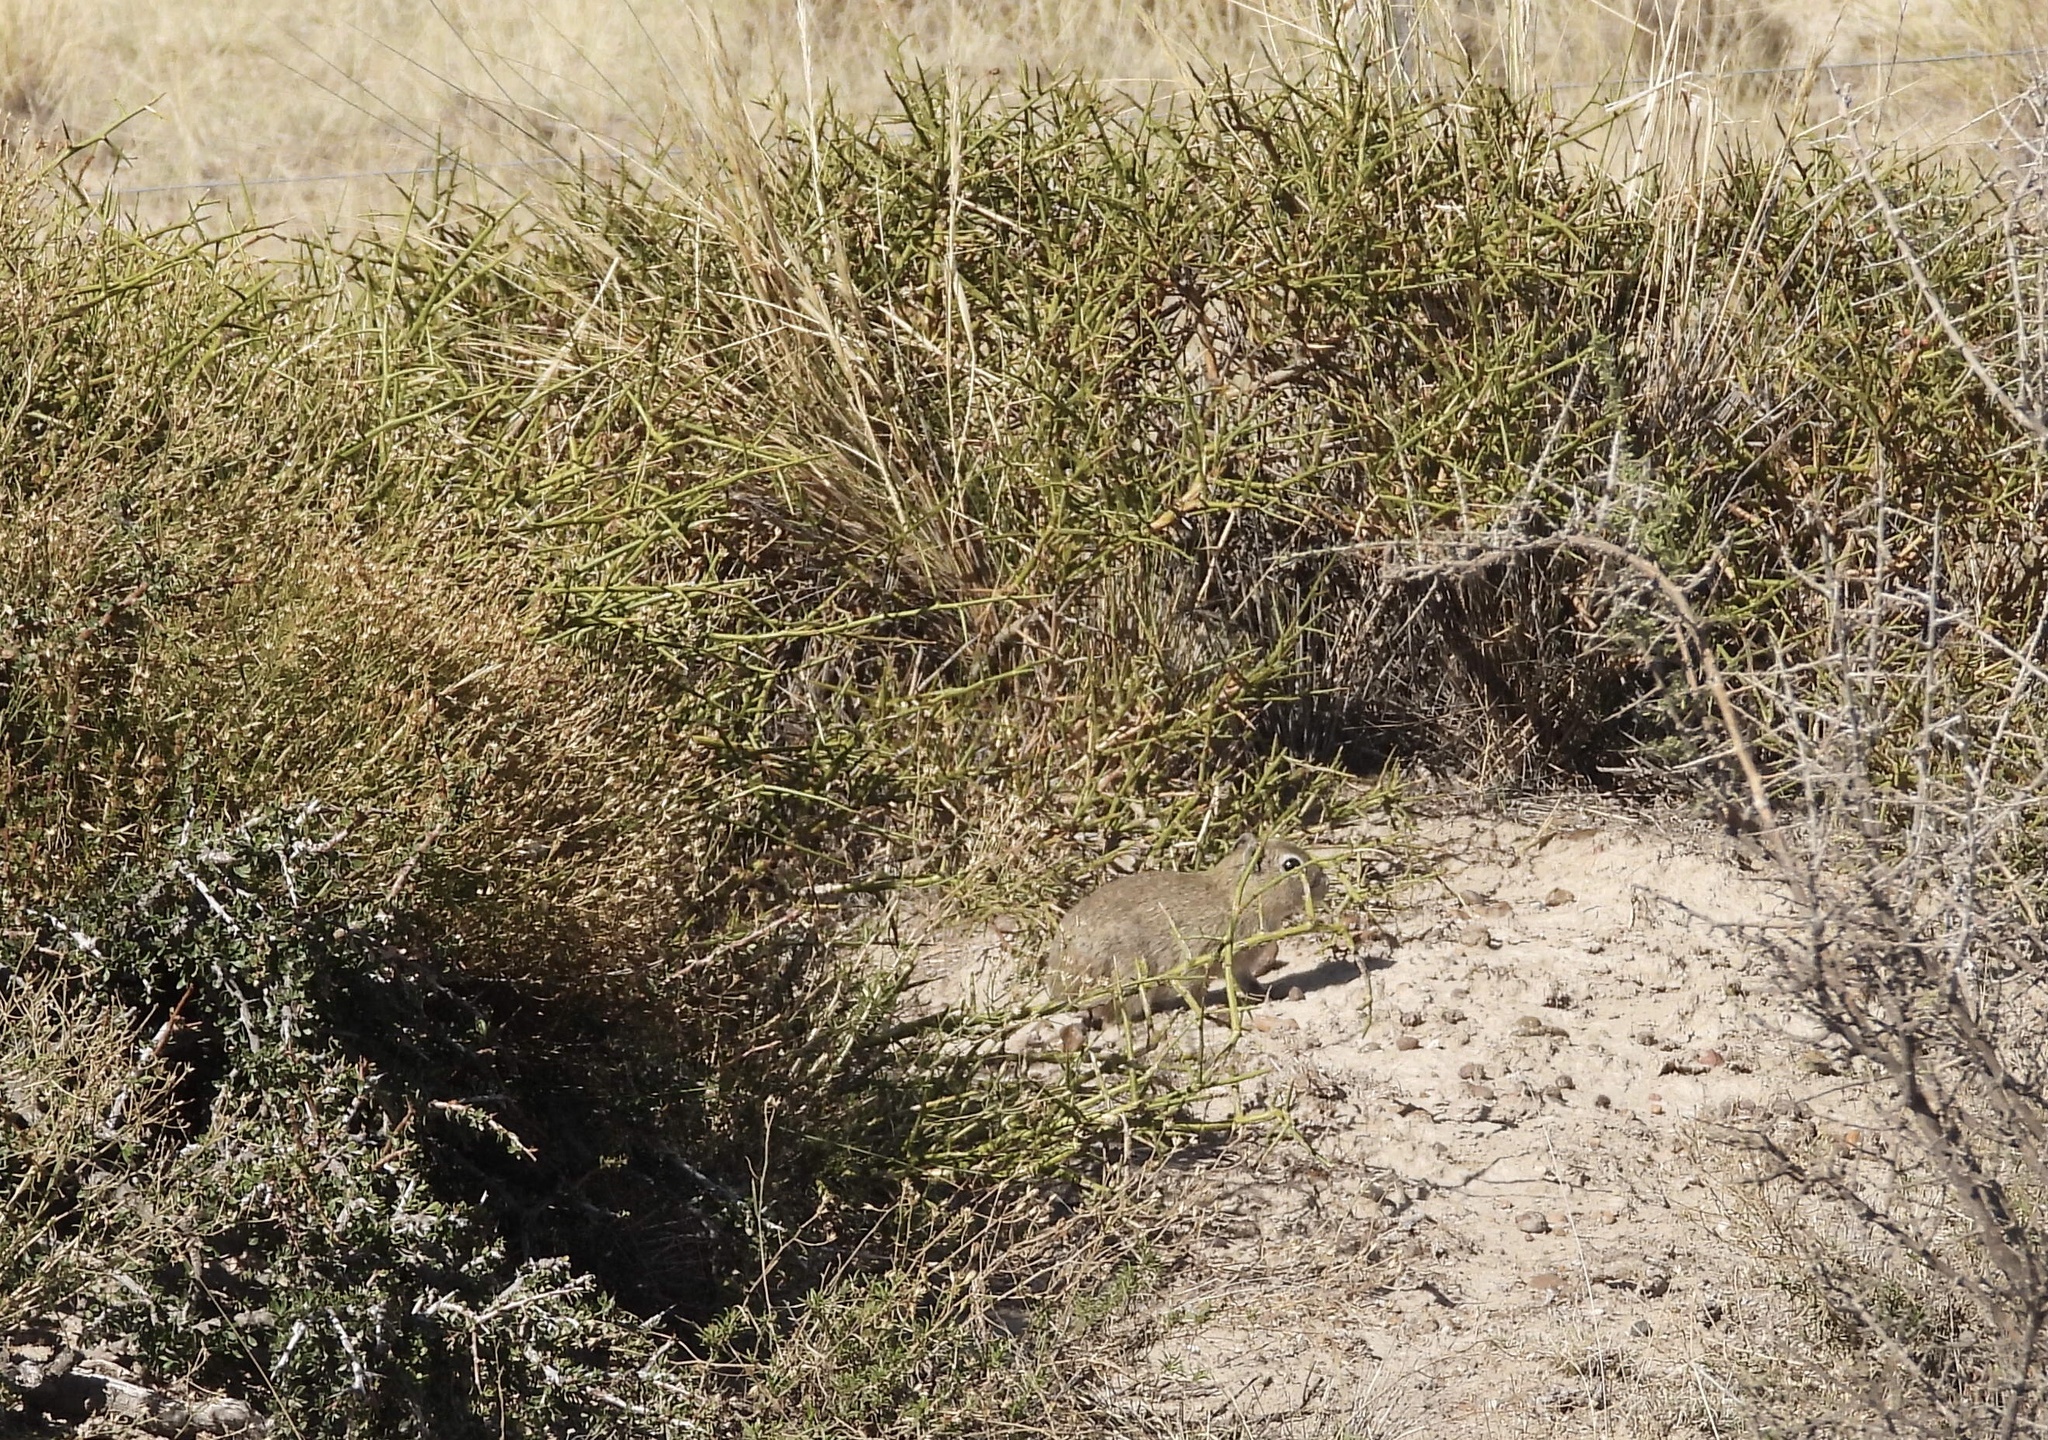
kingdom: Animalia
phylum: Chordata
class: Mammalia
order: Rodentia
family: Caviidae
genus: Microcavia
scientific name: Microcavia australis
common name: Southern mountain cavy
